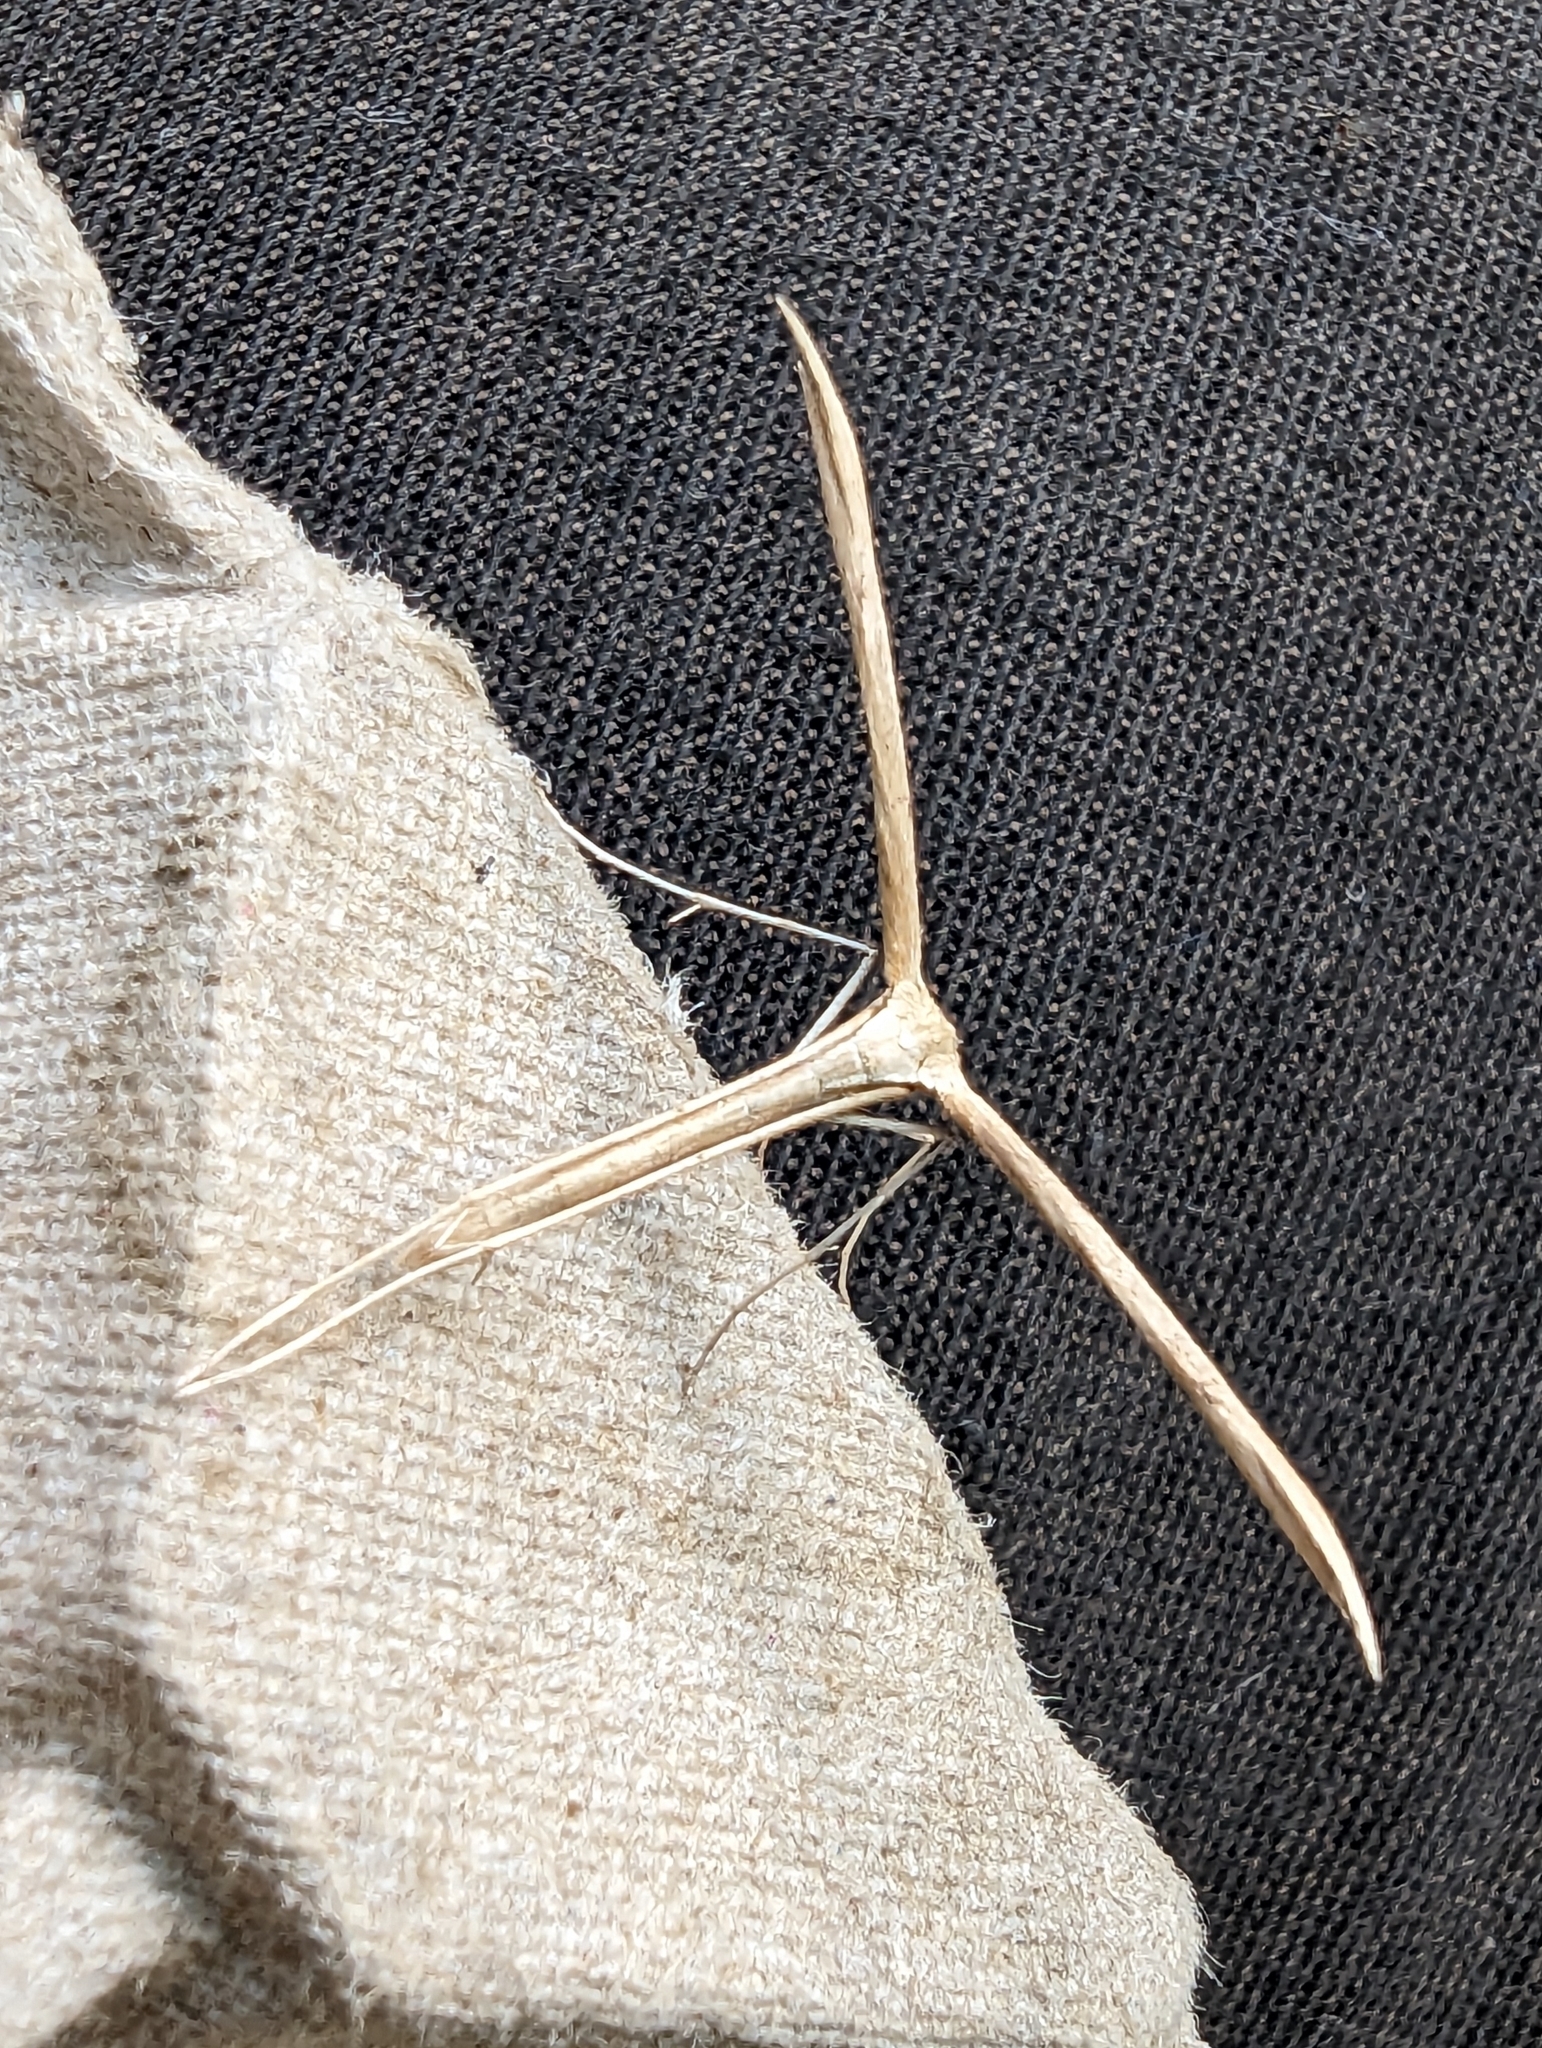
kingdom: Animalia
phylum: Arthropoda
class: Insecta
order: Lepidoptera
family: Pterophoridae
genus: Emmelina
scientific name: Emmelina monodactyla
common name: Common plume
